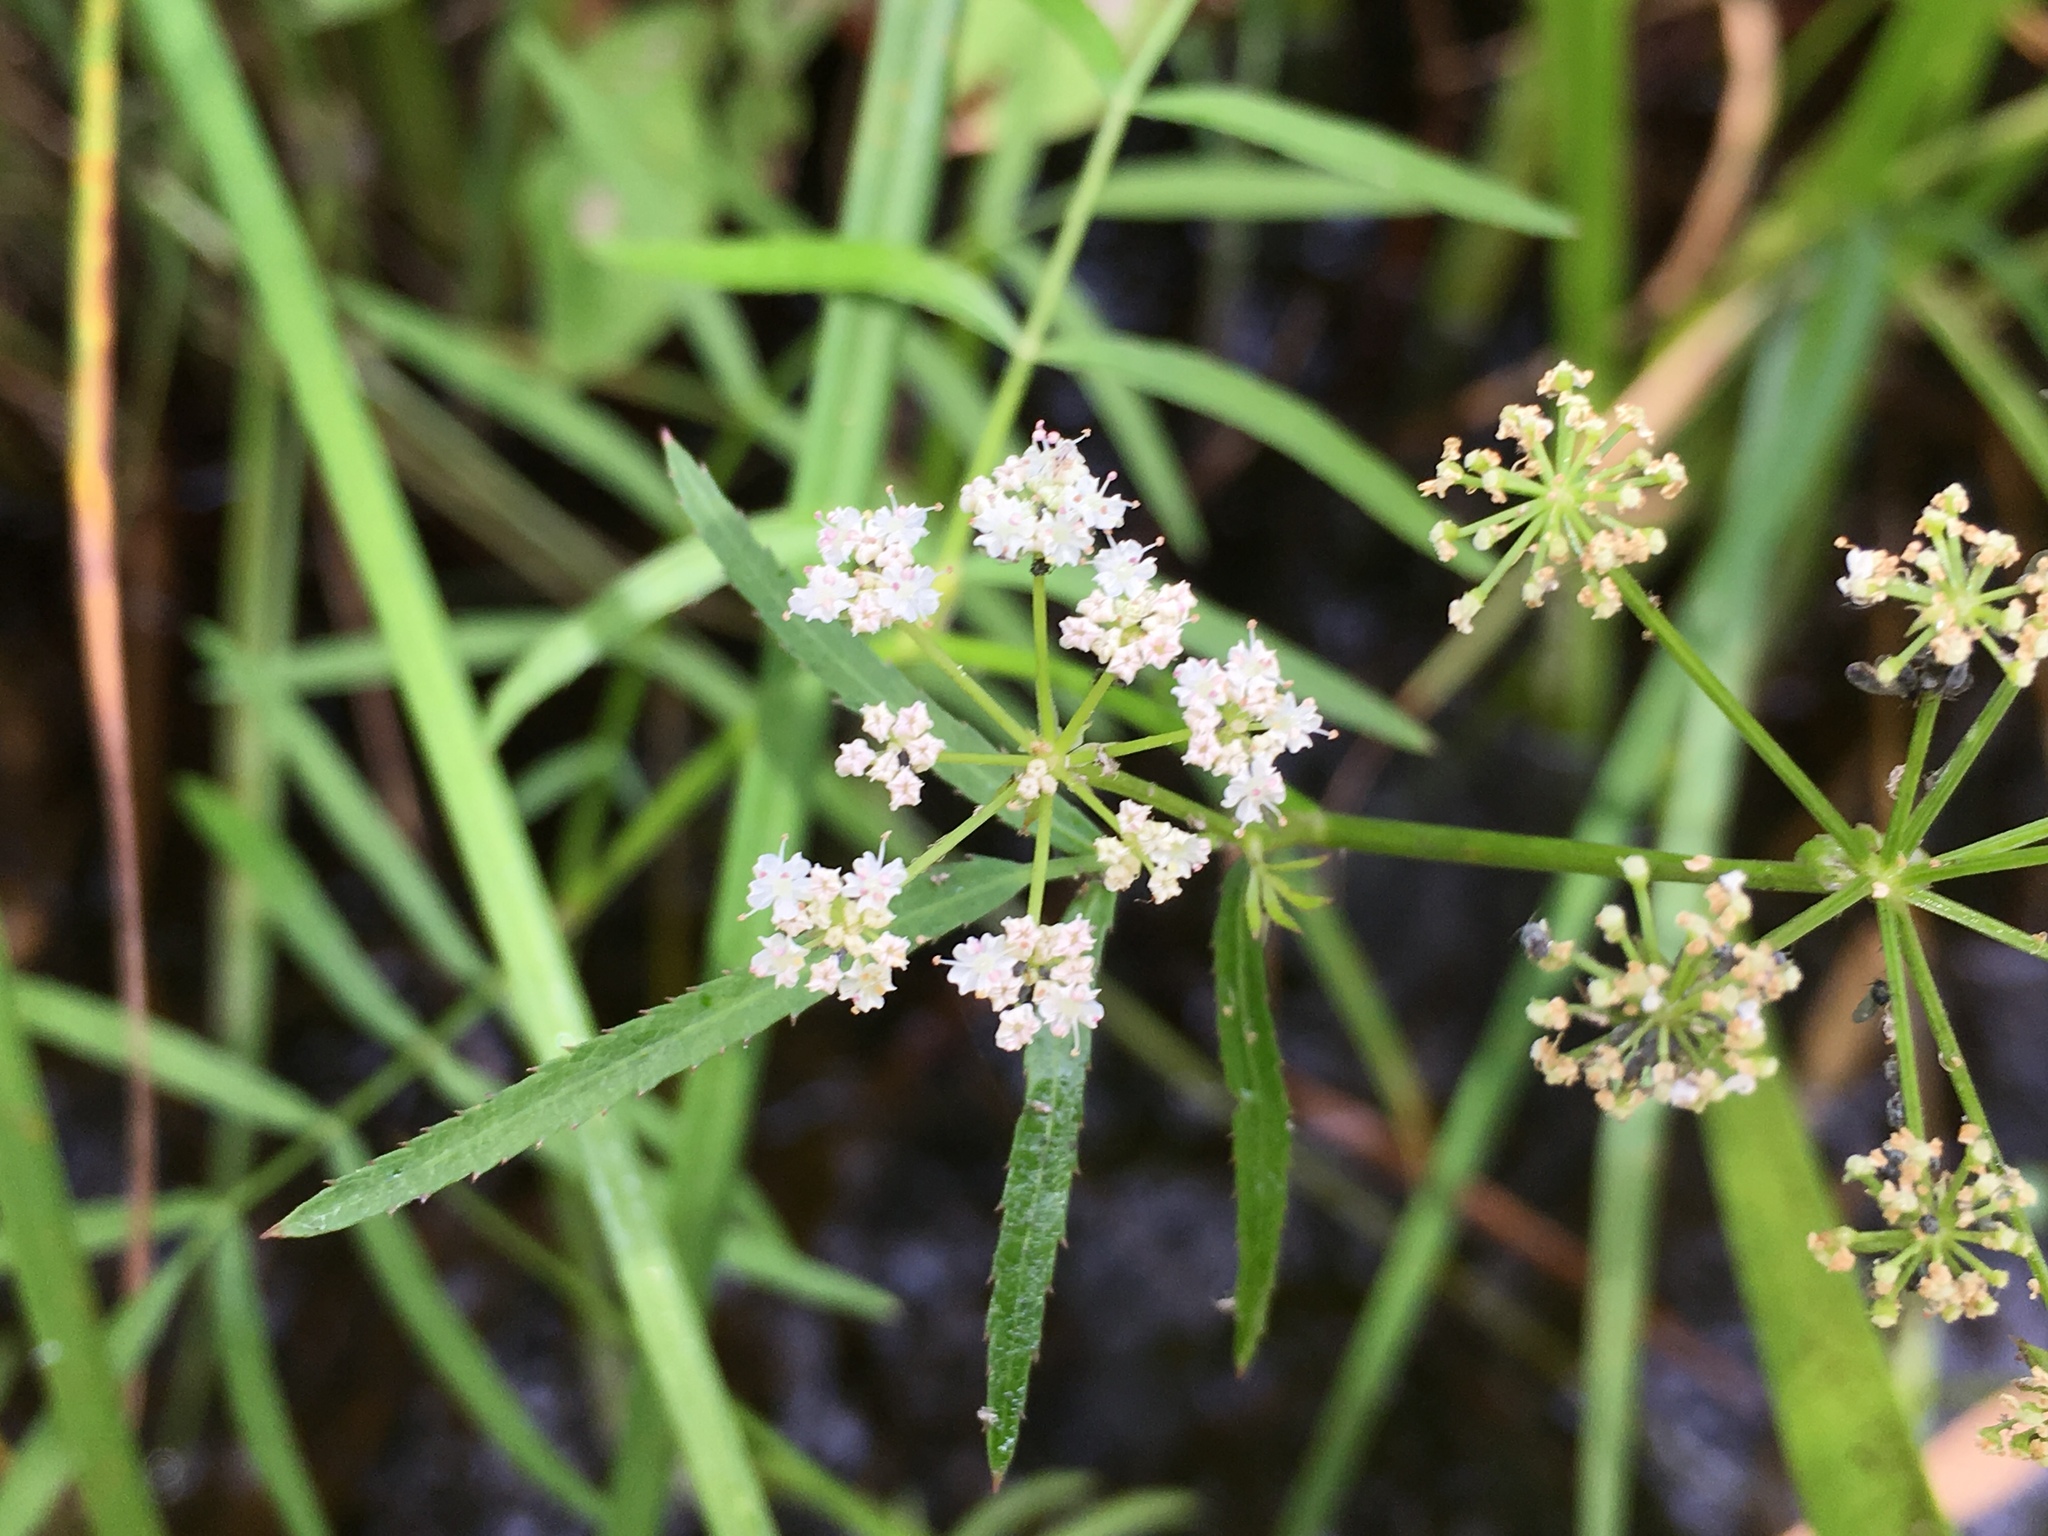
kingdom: Plantae
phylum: Tracheophyta
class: Magnoliopsida
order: Apiales
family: Apiaceae
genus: Sium
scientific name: Sium suave
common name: Hemlock water-parsnip
